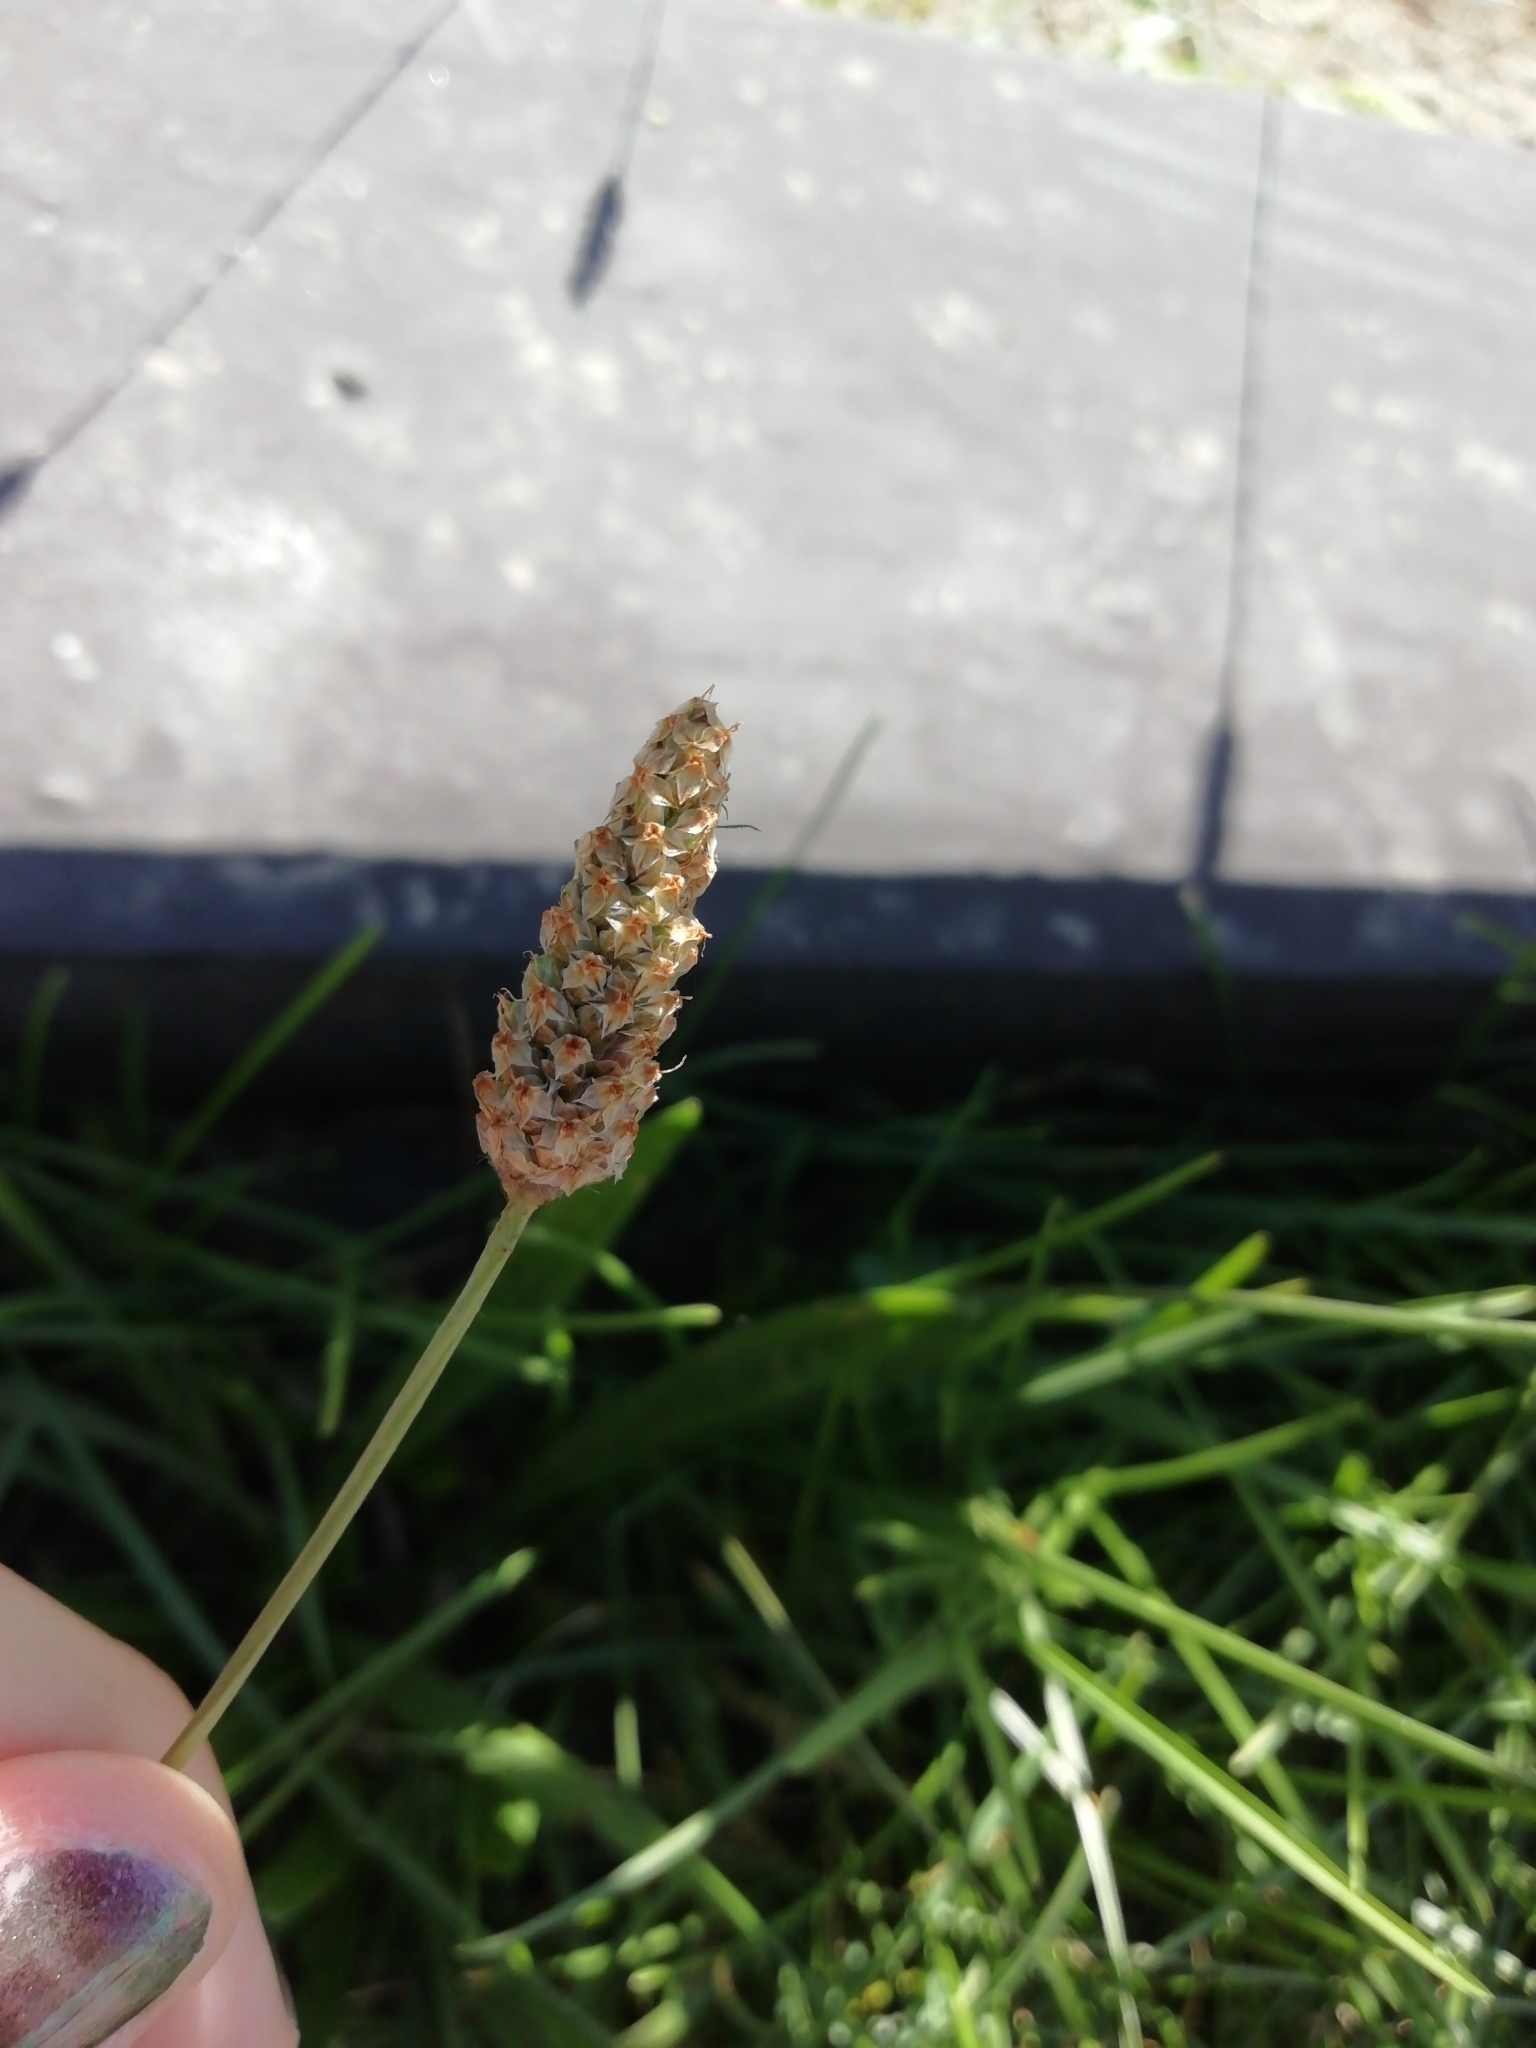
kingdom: Plantae
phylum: Tracheophyta
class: Magnoliopsida
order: Lamiales
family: Plantaginaceae
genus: Plantago
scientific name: Plantago lanceolata
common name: Ribwort plantain
